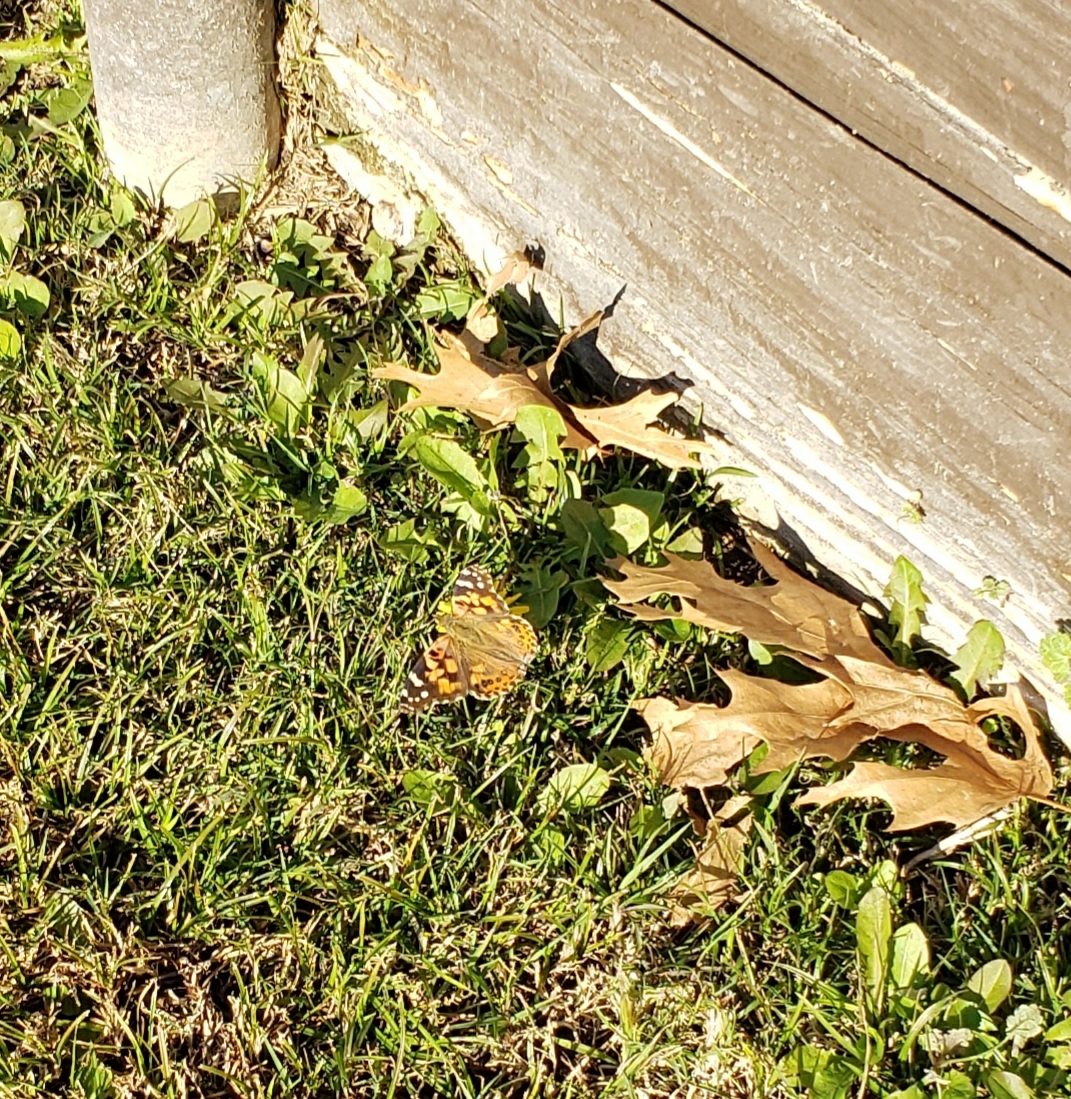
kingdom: Animalia
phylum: Arthropoda
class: Insecta
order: Lepidoptera
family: Nymphalidae
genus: Vanessa
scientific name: Vanessa cardui
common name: Painted lady
